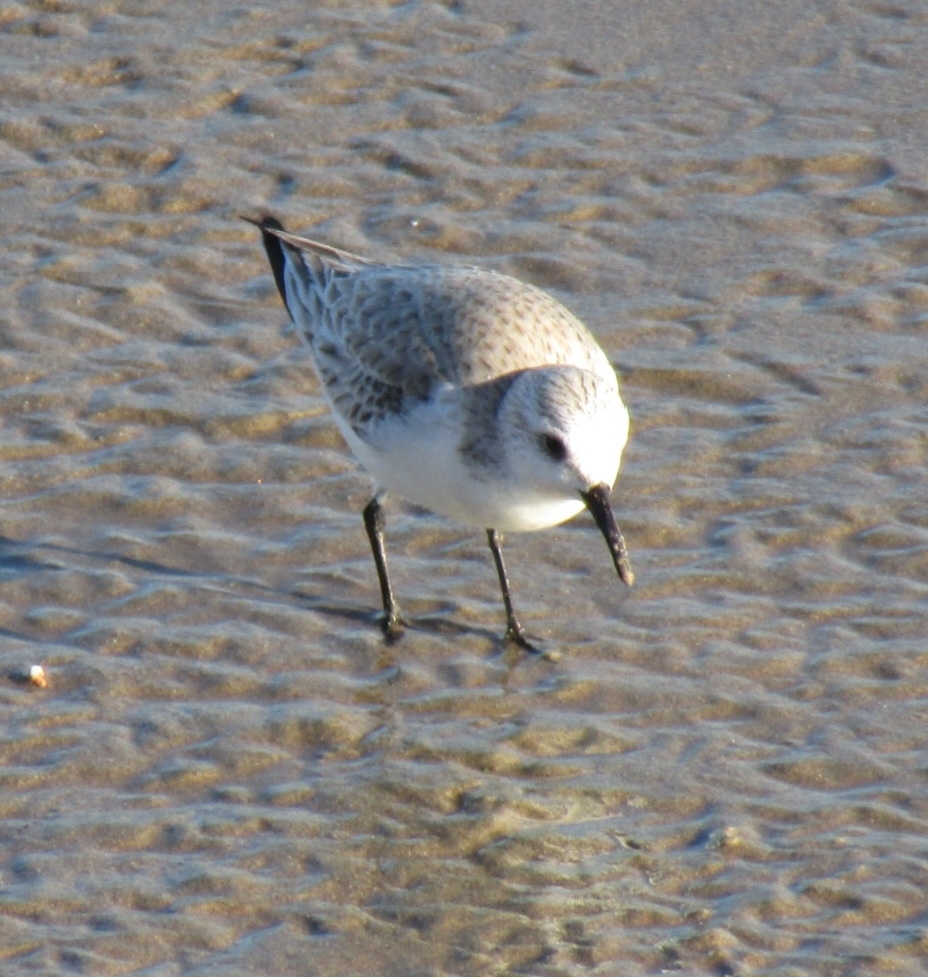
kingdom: Animalia
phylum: Chordata
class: Aves
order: Charadriiformes
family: Scolopacidae
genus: Calidris
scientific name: Calidris alba
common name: Sanderling
